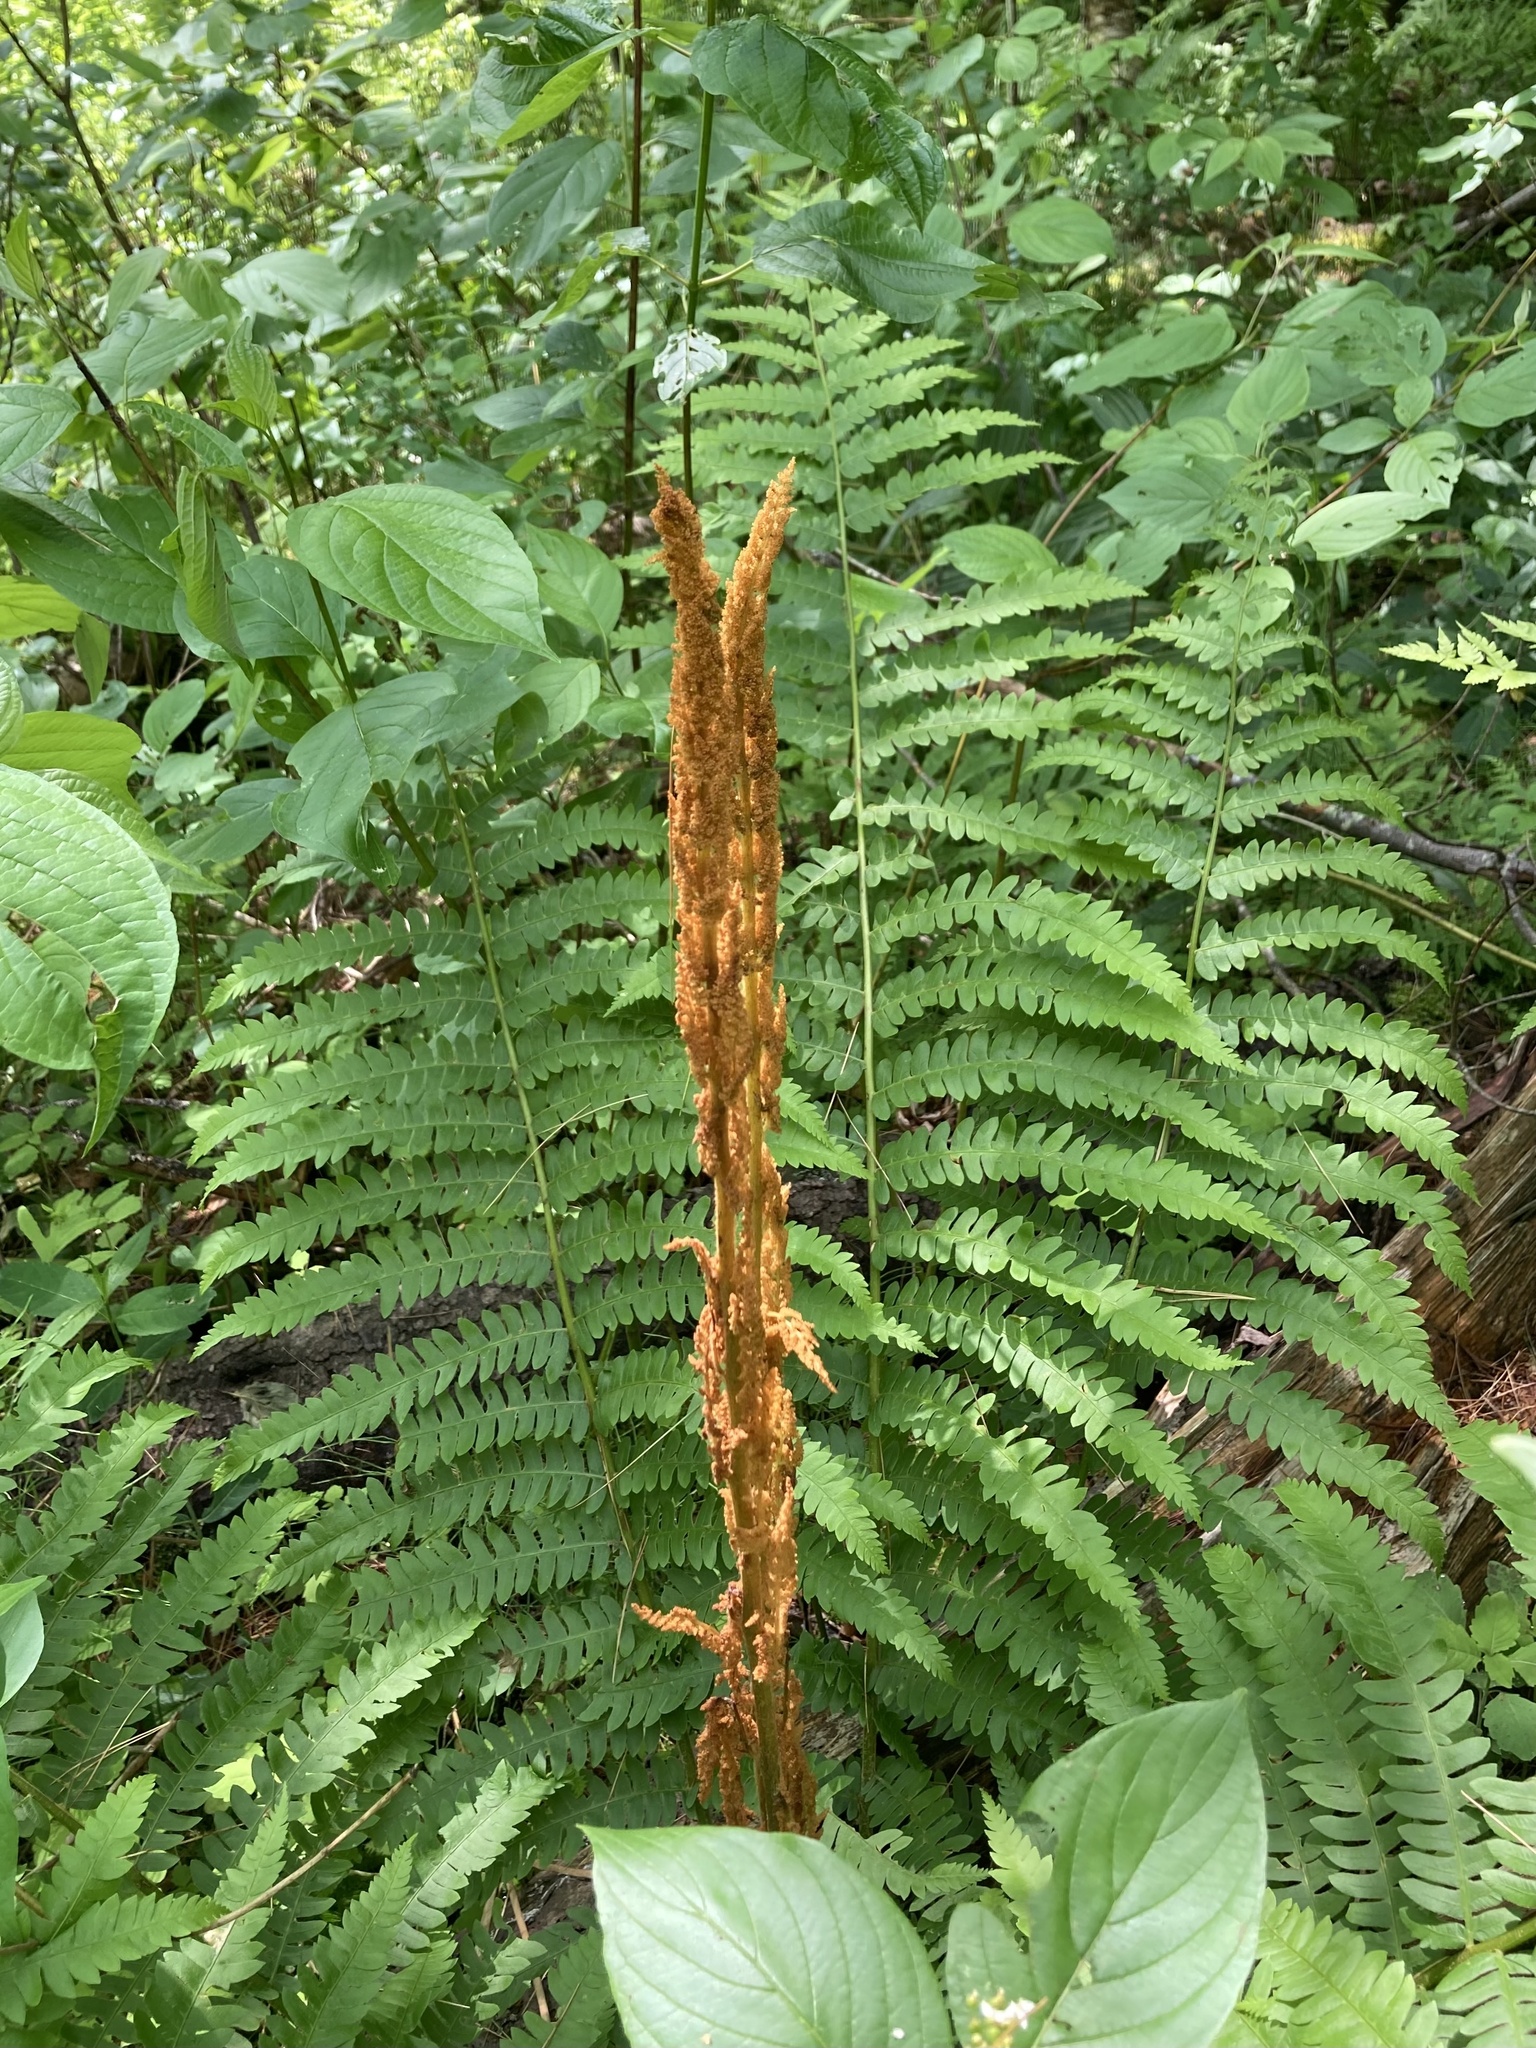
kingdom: Plantae
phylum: Tracheophyta
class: Polypodiopsida
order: Osmundales
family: Osmundaceae
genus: Osmundastrum
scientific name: Osmundastrum cinnamomeum
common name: Cinnamon fern
